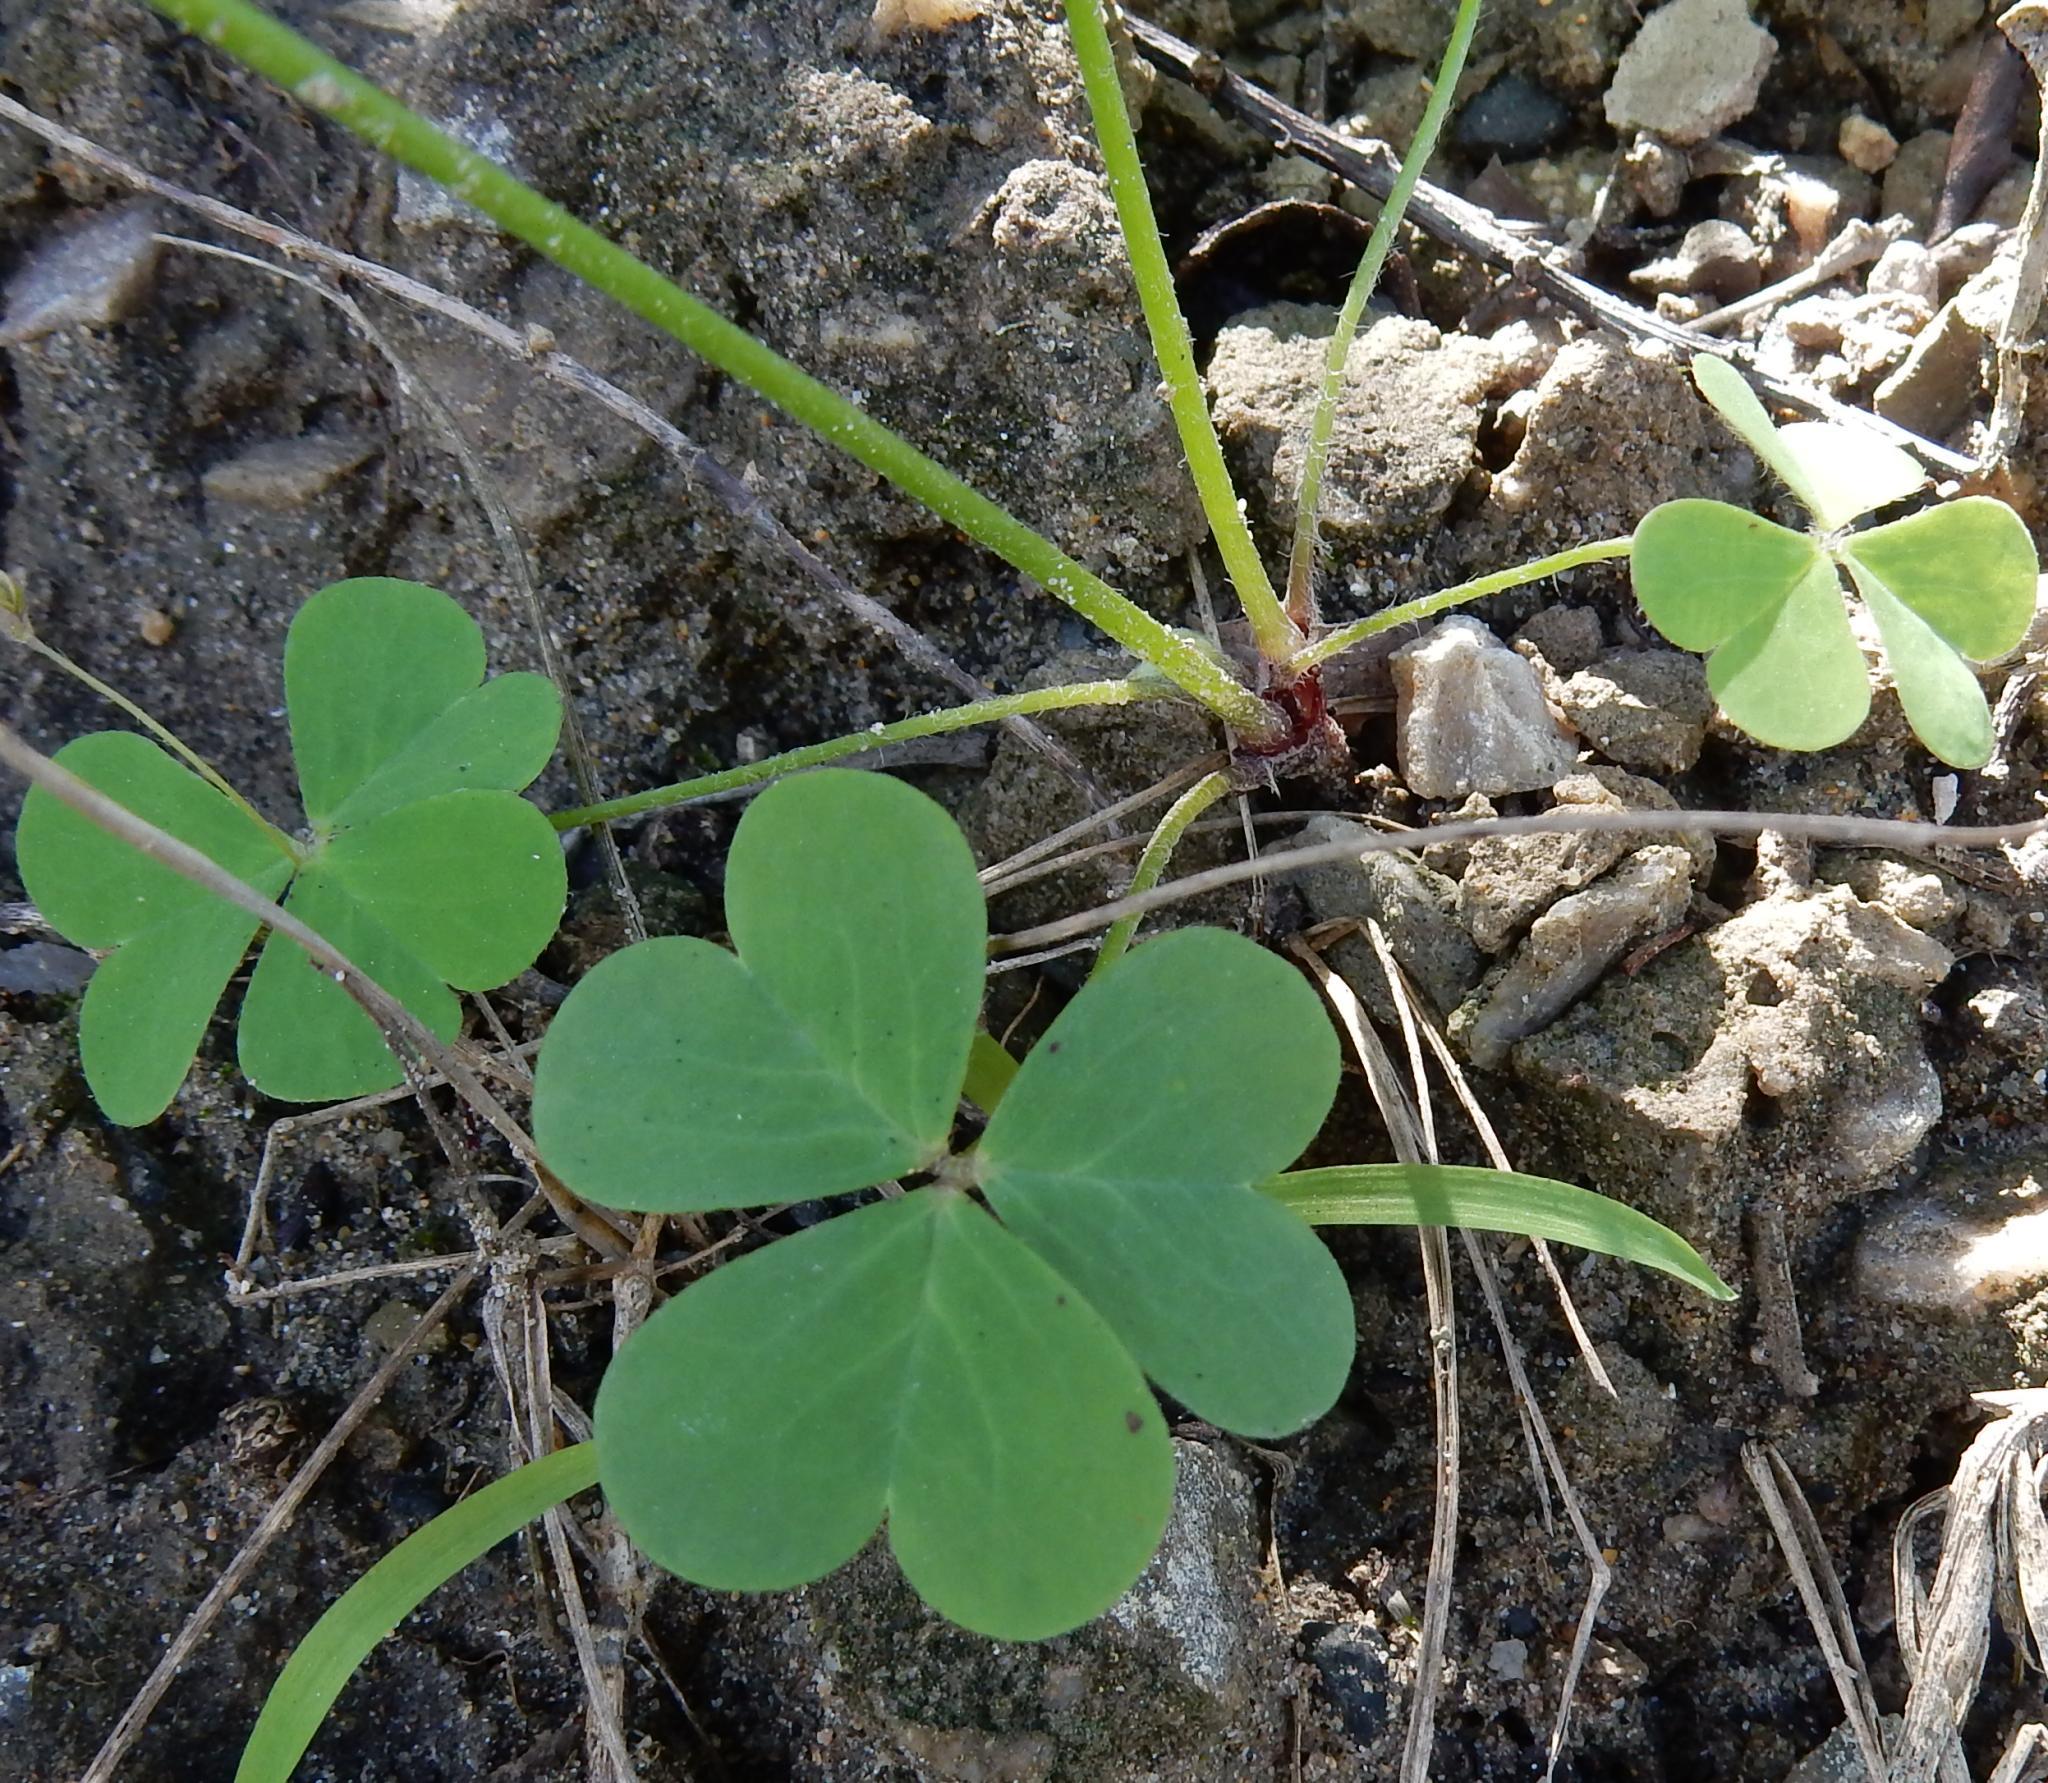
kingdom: Plantae
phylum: Tracheophyta
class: Magnoliopsida
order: Oxalidales
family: Oxalidaceae
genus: Oxalis
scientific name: Oxalis caprina
